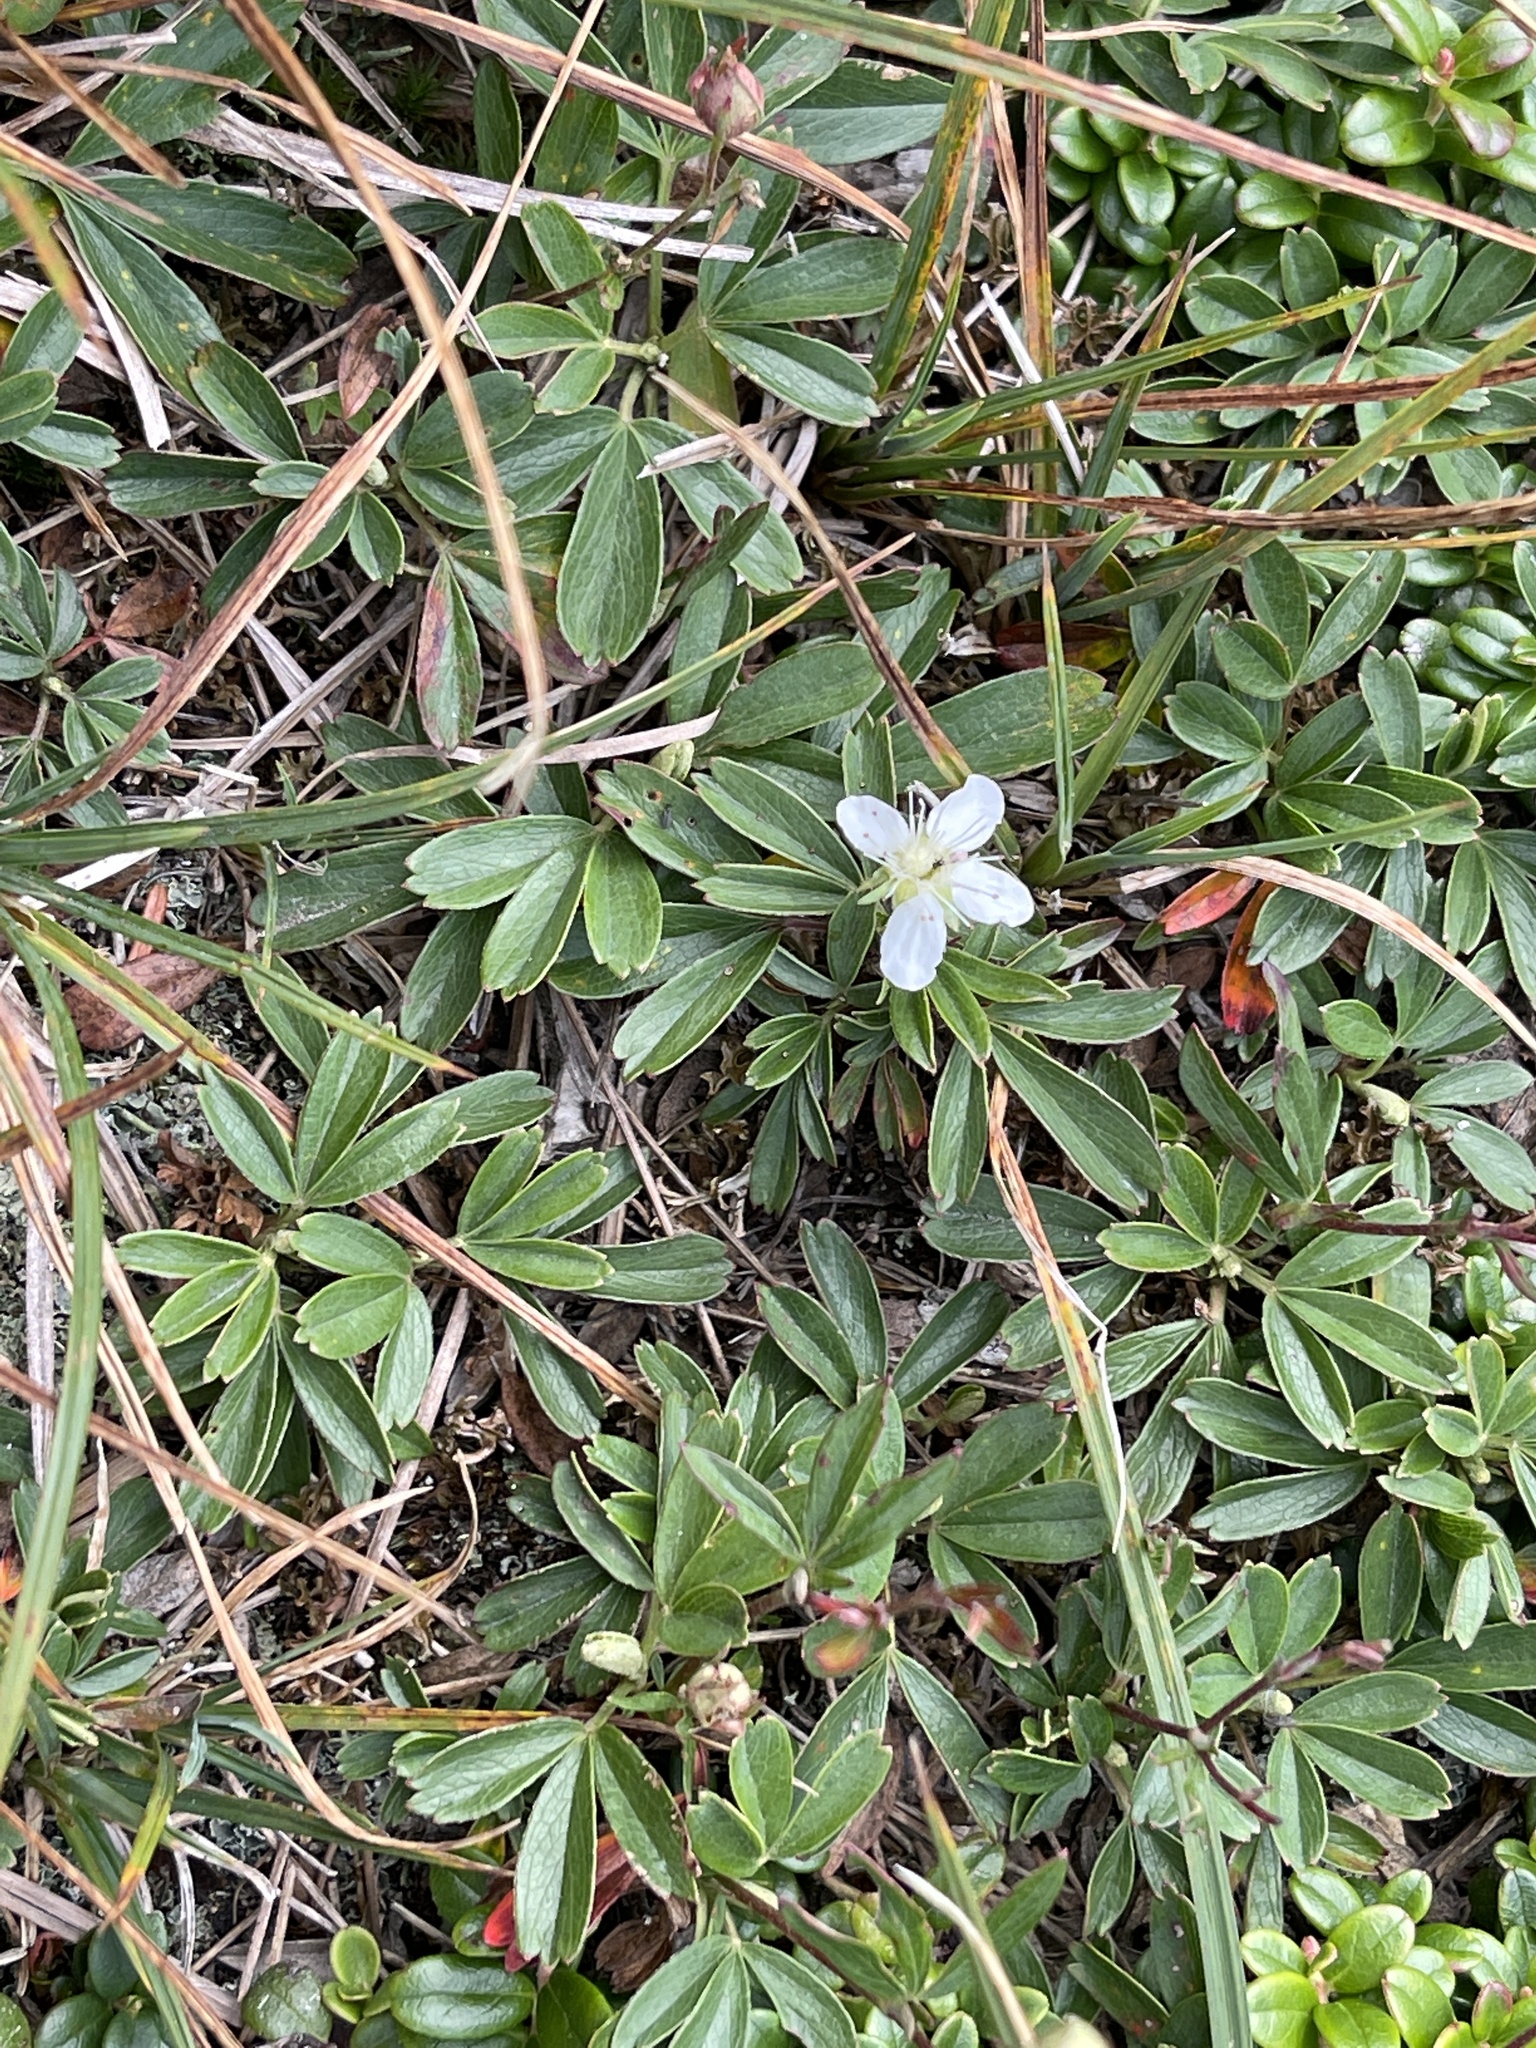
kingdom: Plantae
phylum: Tracheophyta
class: Magnoliopsida
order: Rosales
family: Rosaceae
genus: Sibbaldia
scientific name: Sibbaldia tridentata
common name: Three-toothed cinquefoil
